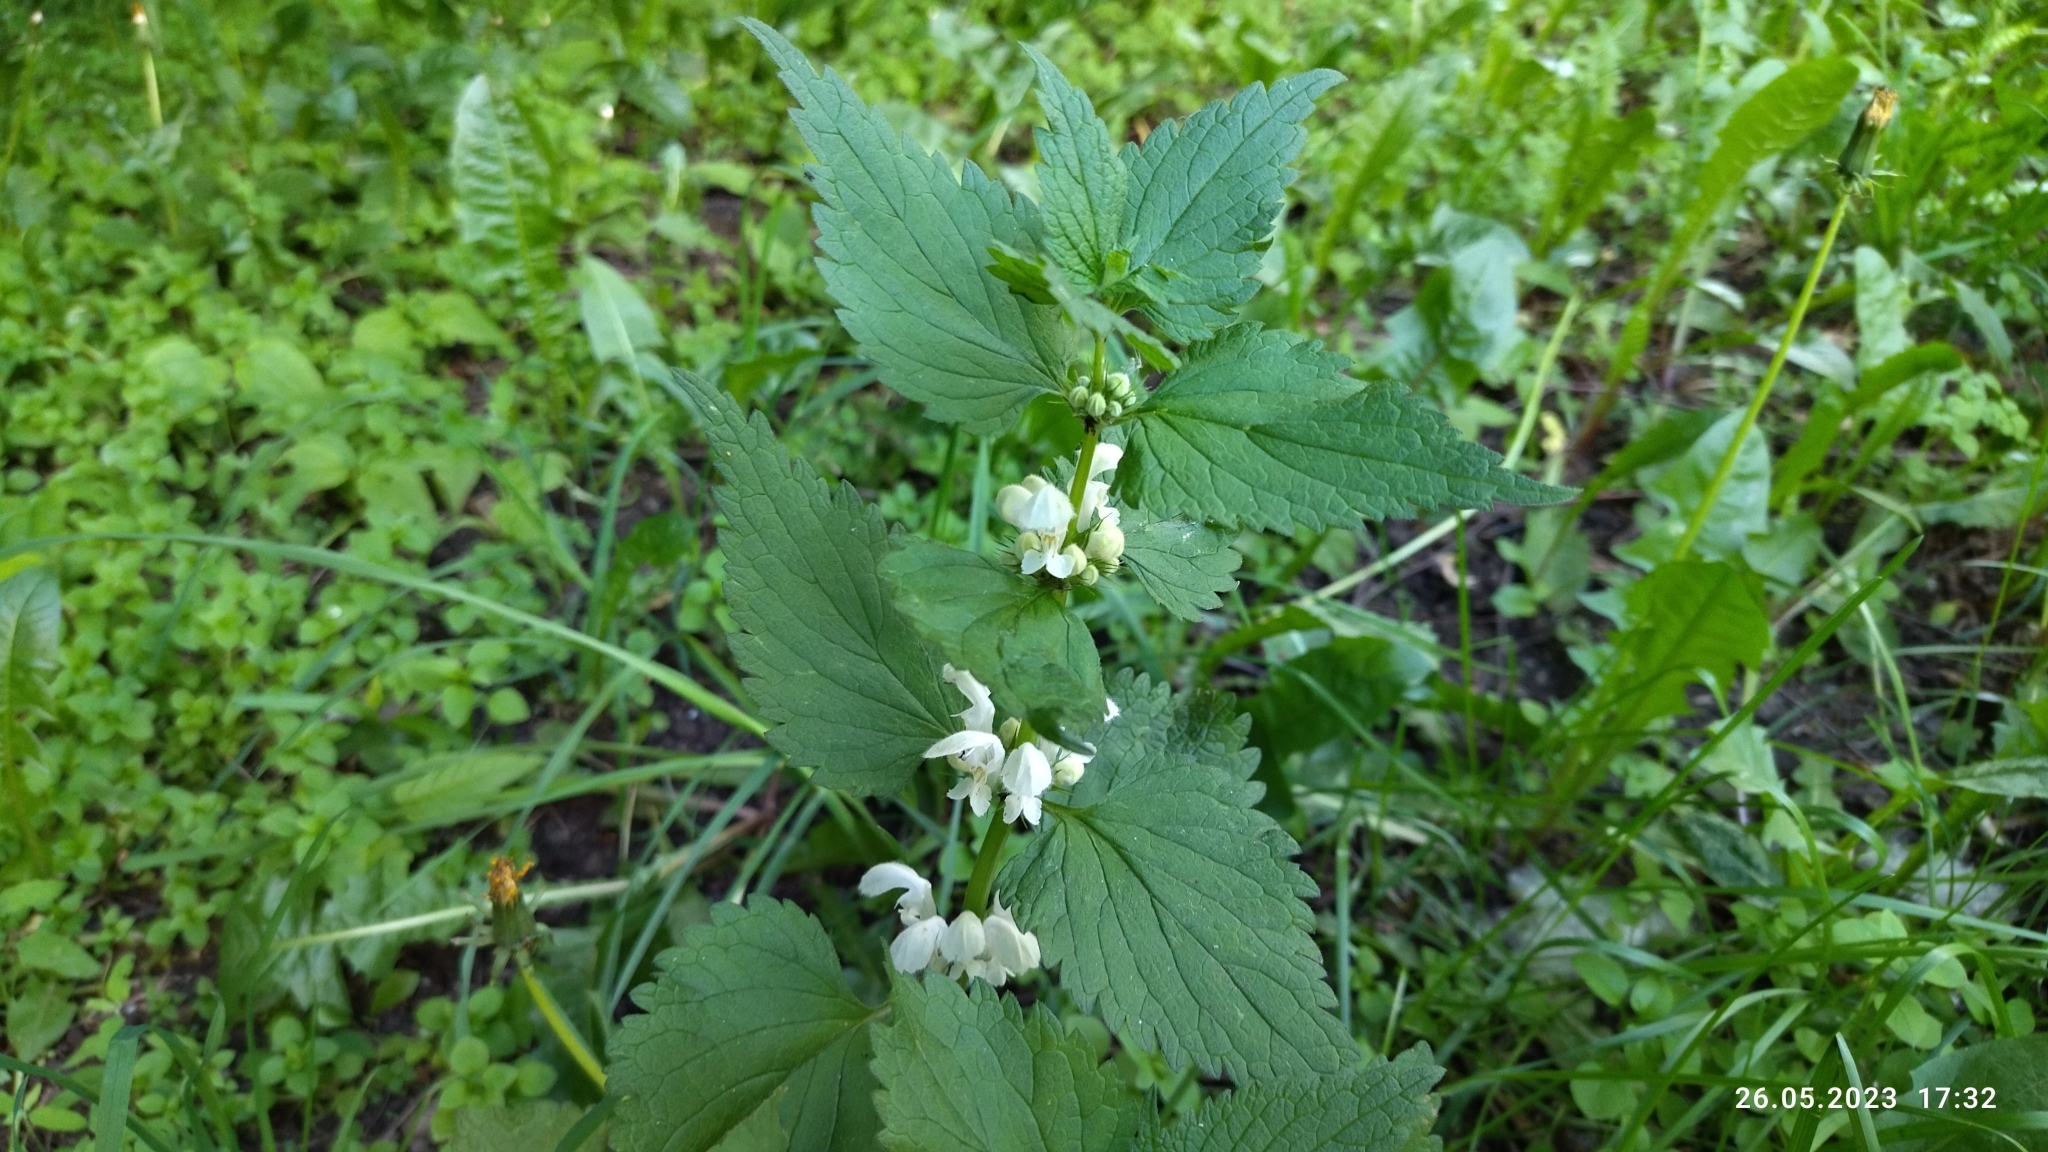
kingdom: Plantae
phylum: Tracheophyta
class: Magnoliopsida
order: Lamiales
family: Lamiaceae
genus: Lamium
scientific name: Lamium album
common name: White dead-nettle
